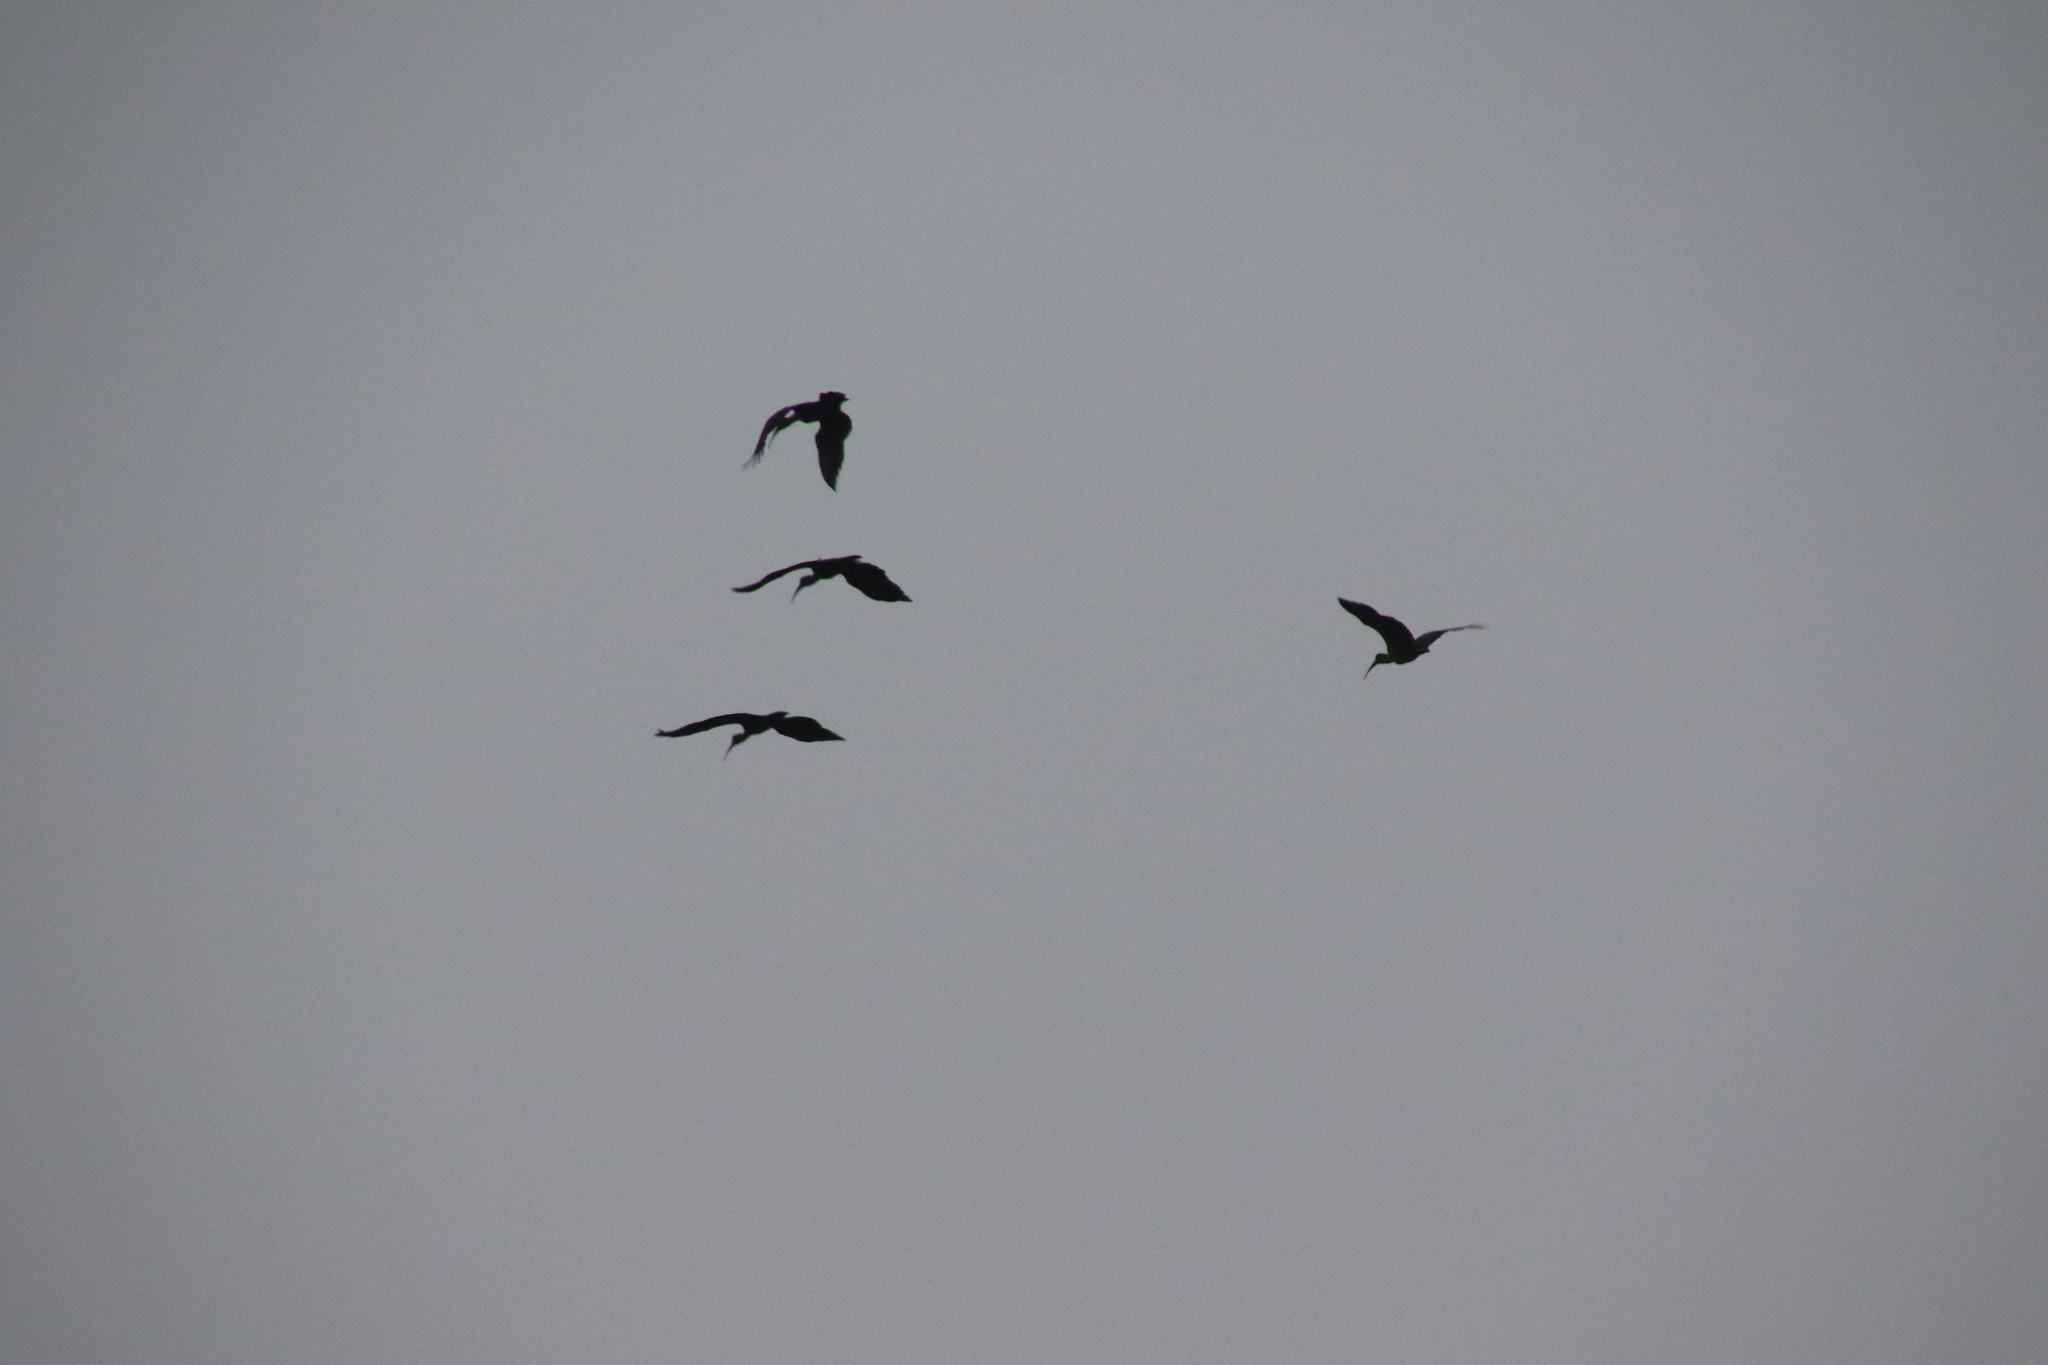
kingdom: Animalia
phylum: Chordata
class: Aves
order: Pelecaniformes
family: Threskiornithidae
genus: Bostrychia
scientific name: Bostrychia hagedash
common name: Hadada ibis
